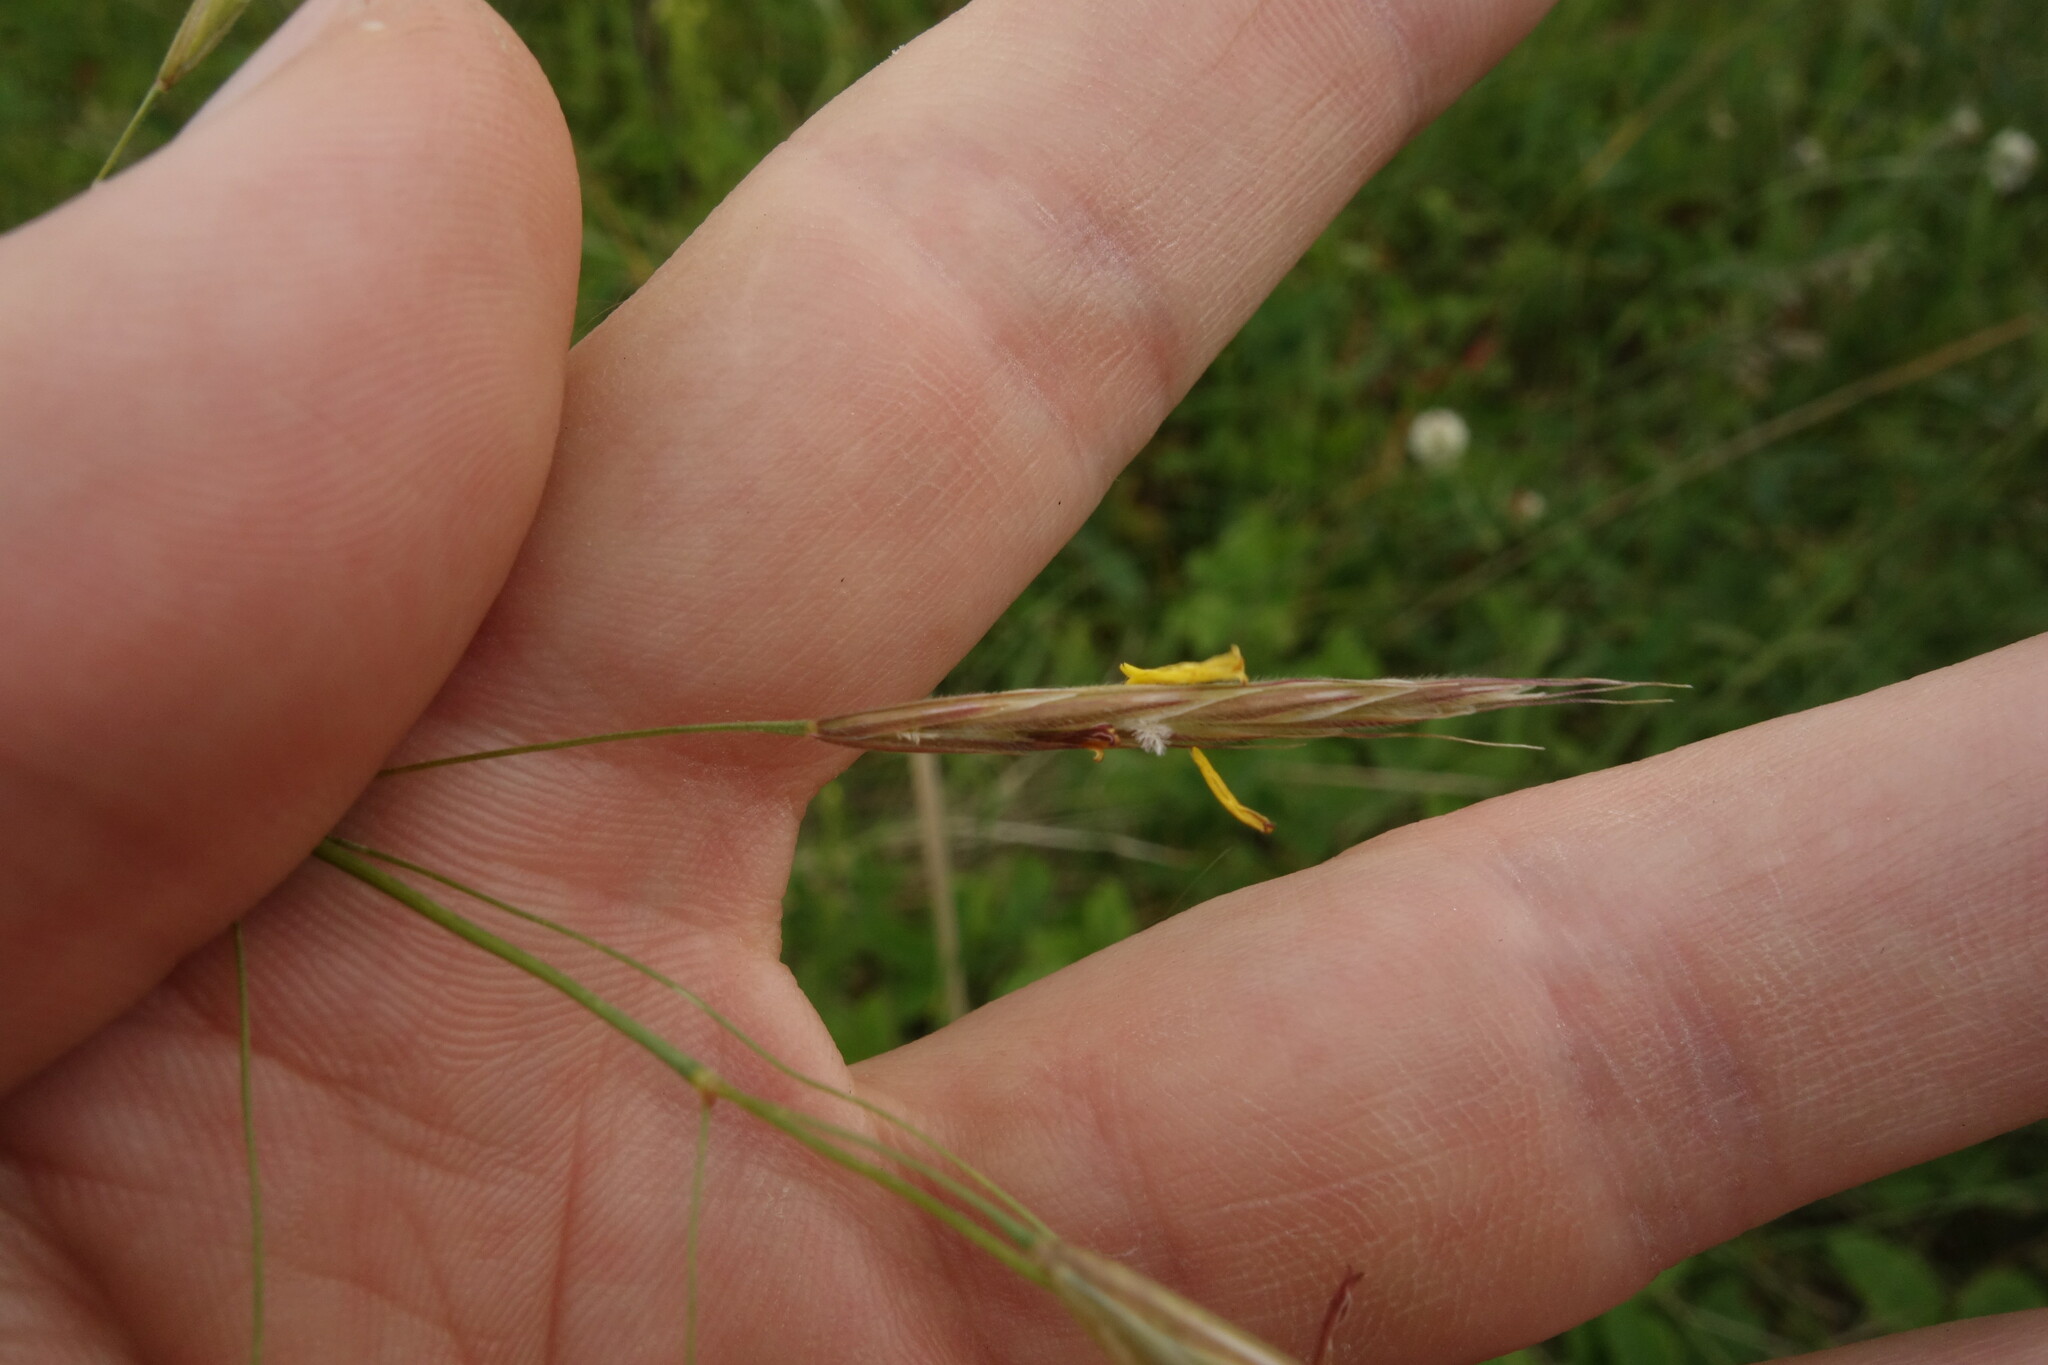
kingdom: Plantae
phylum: Tracheophyta
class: Liliopsida
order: Poales
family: Poaceae
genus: Bromus
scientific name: Bromus riparius
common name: Meadow brome
